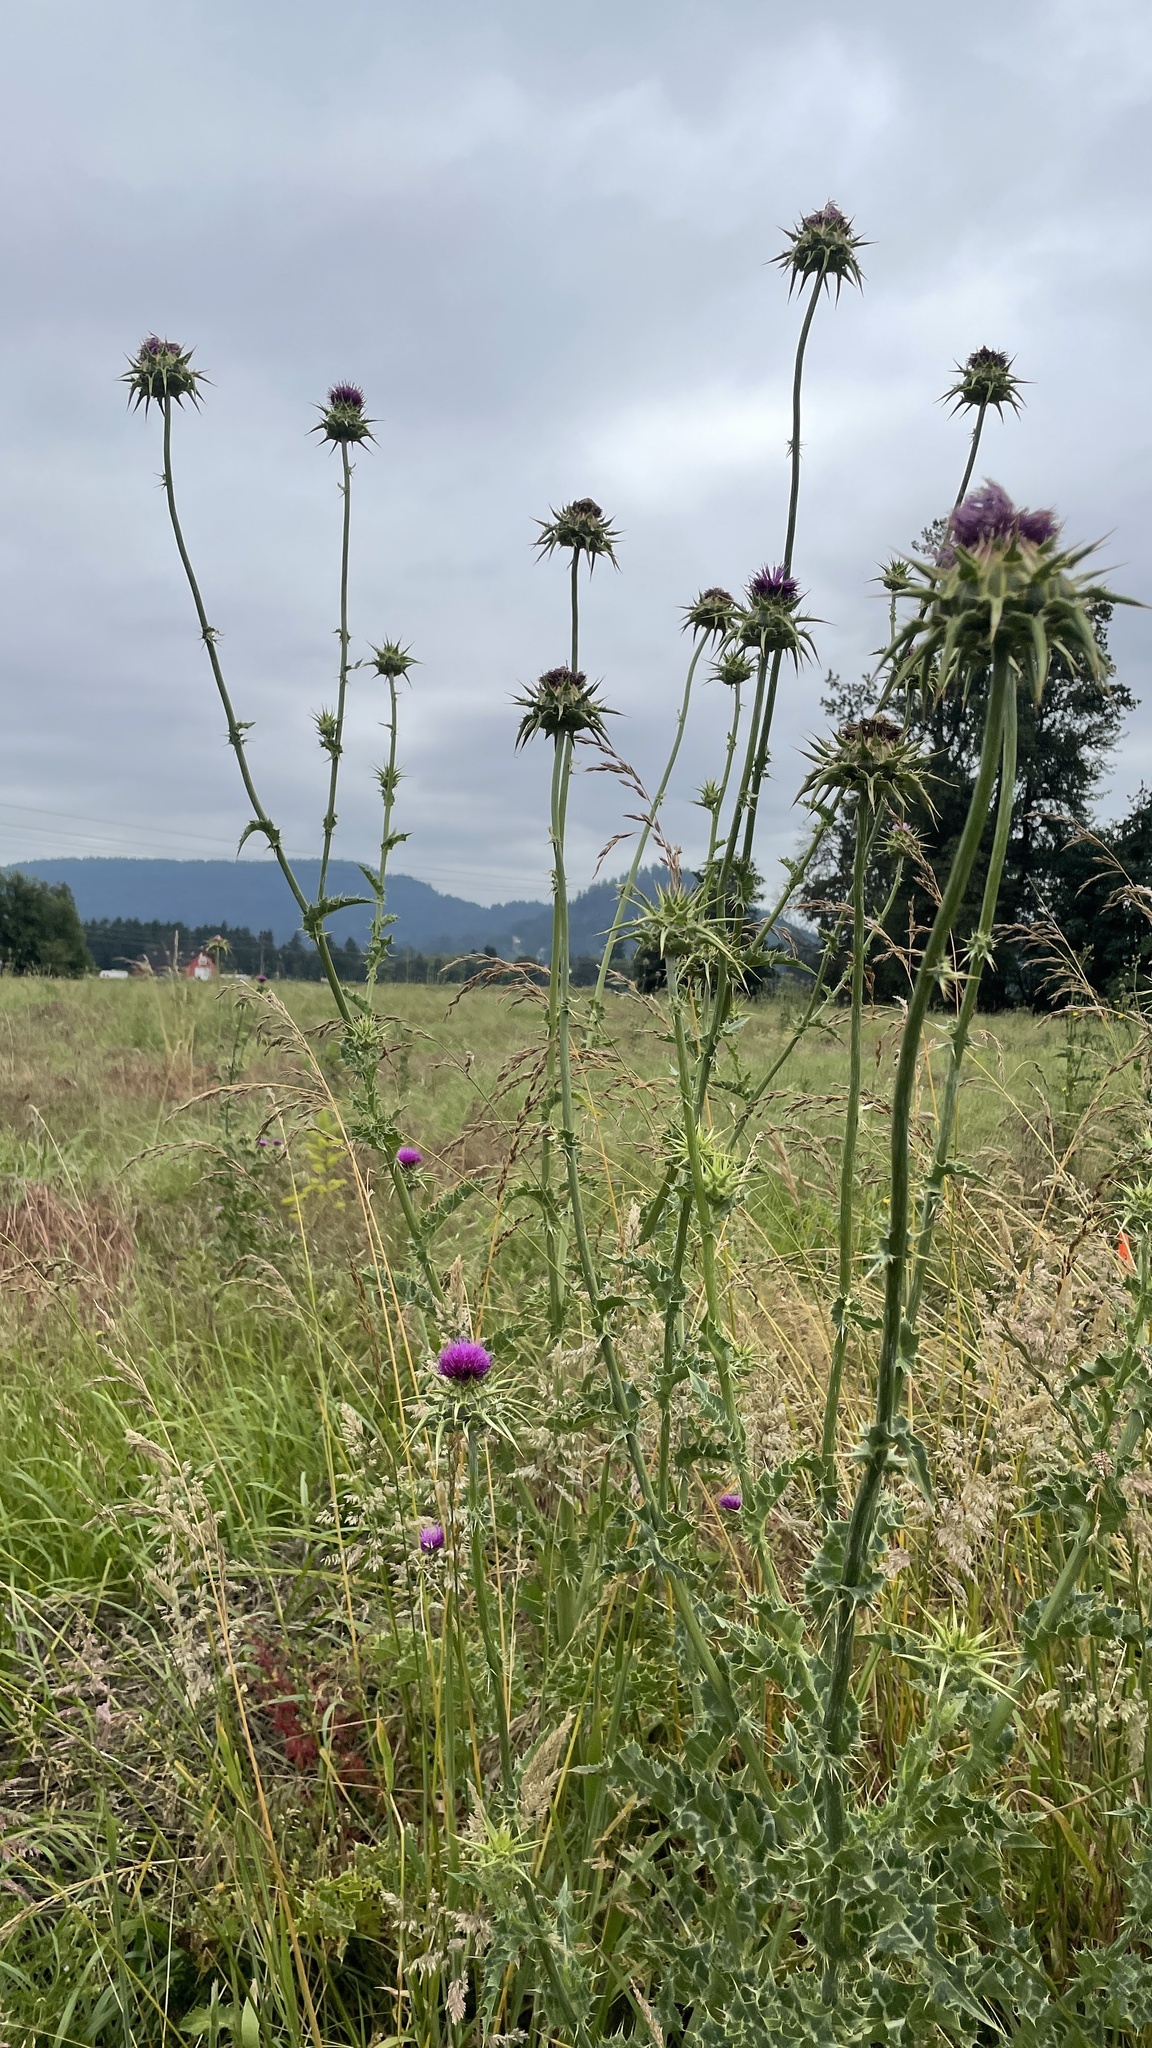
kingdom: Plantae
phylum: Tracheophyta
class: Magnoliopsida
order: Asterales
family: Asteraceae
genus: Silybum
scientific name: Silybum marianum
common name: Milk thistle
